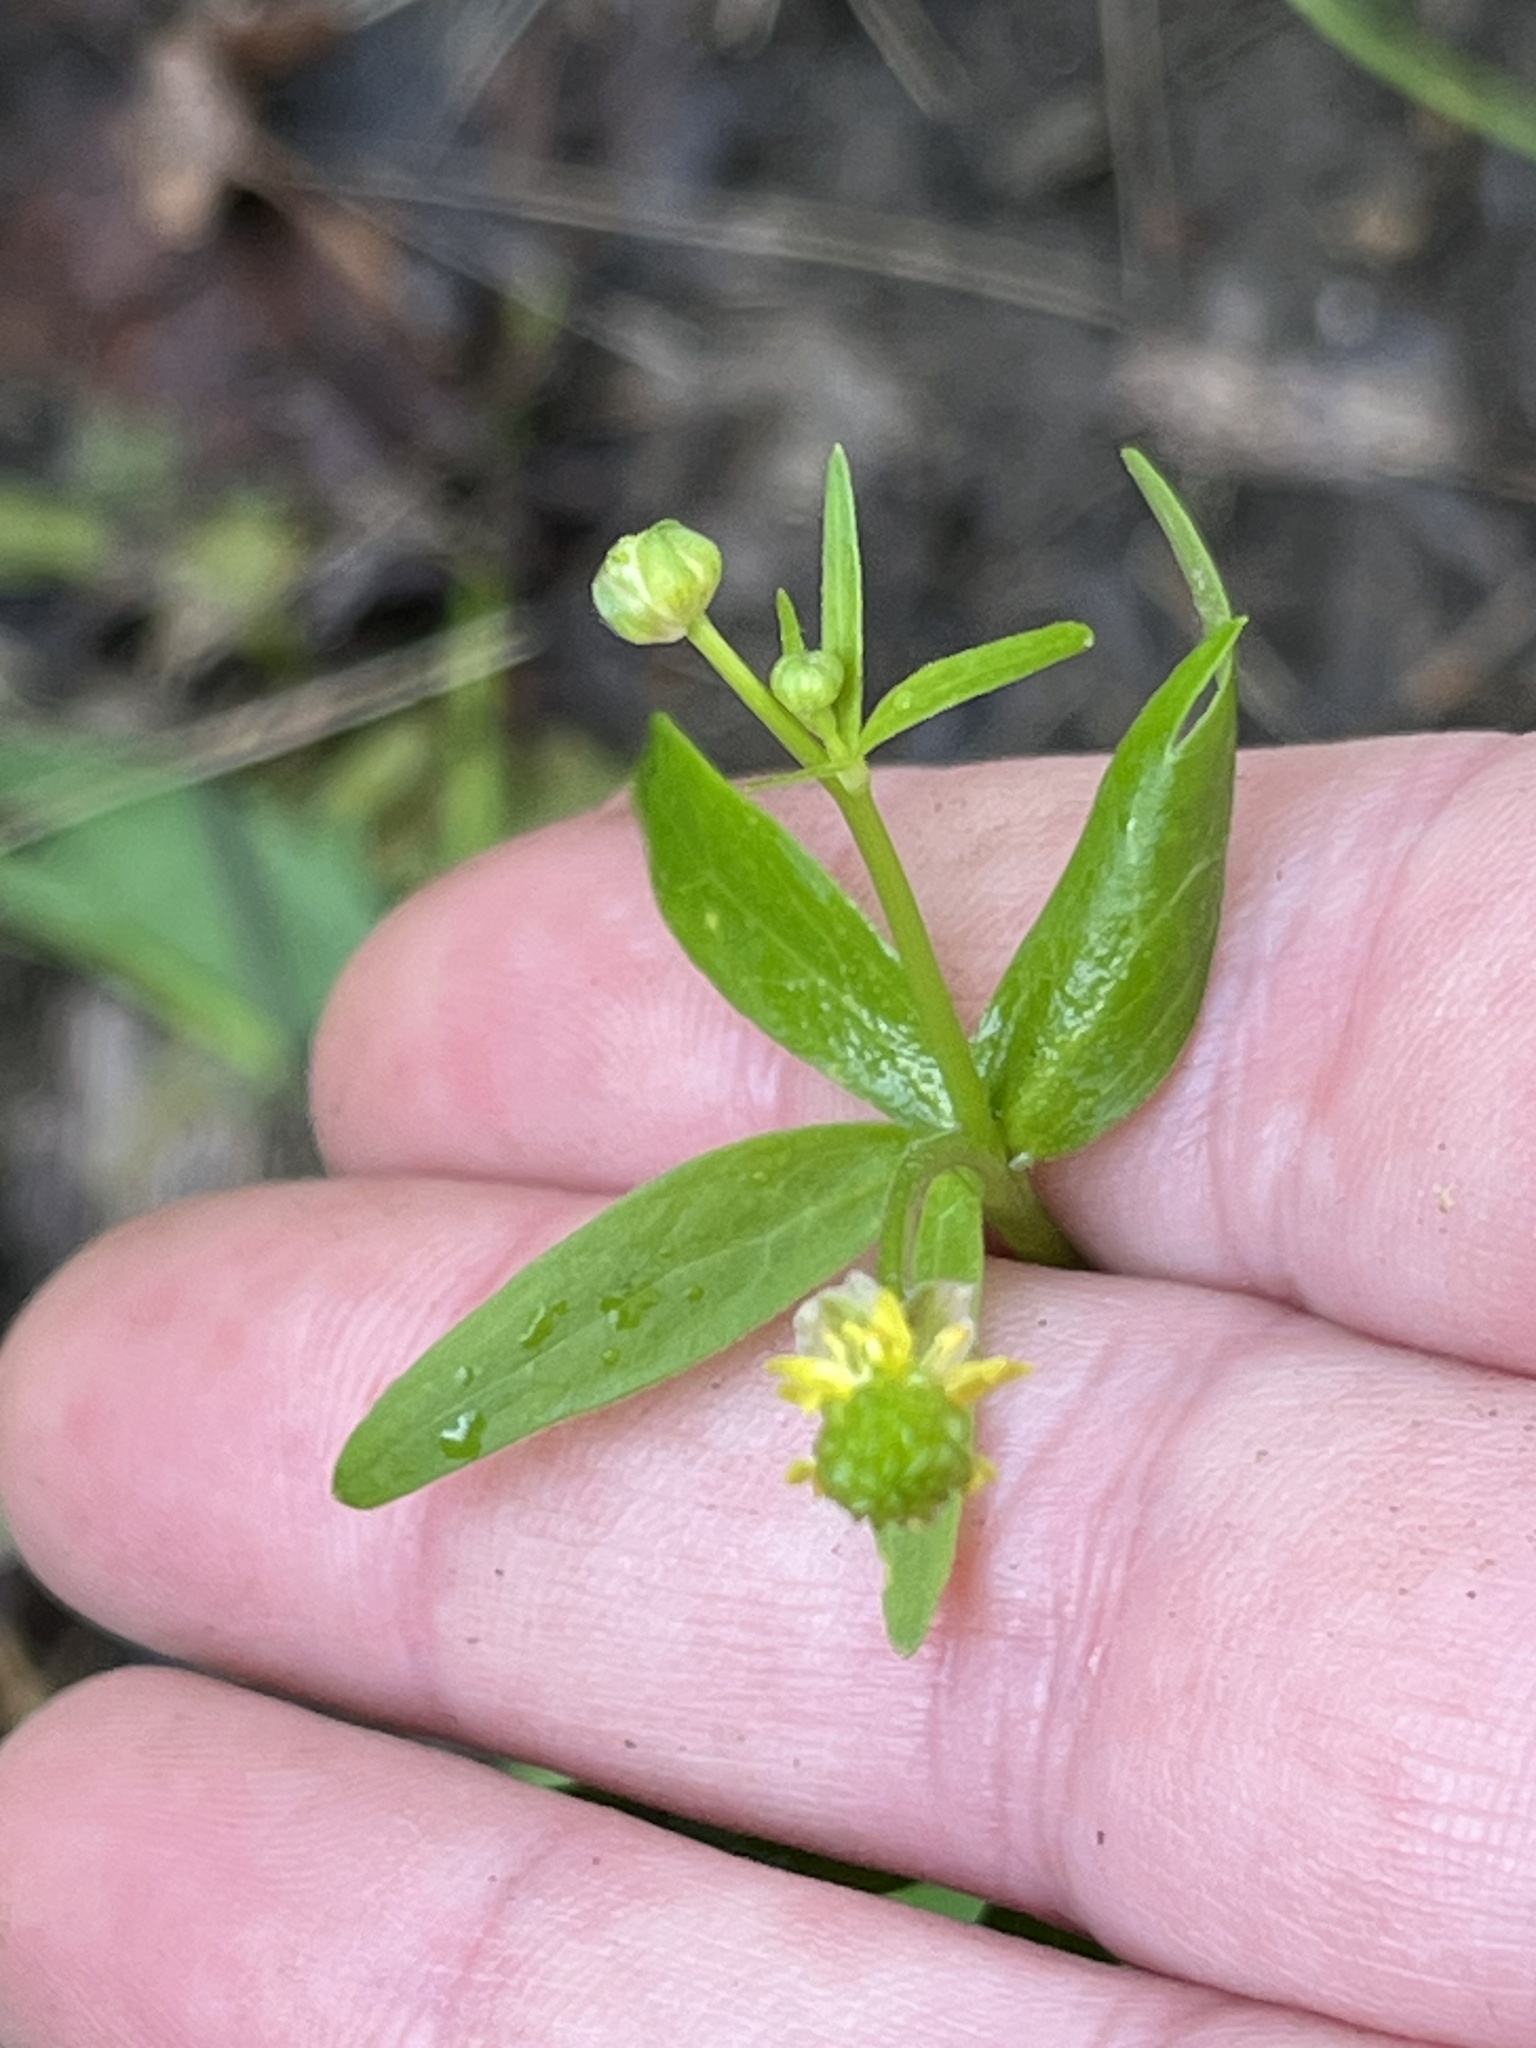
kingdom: Plantae
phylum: Tracheophyta
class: Magnoliopsida
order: Ranunculales
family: Ranunculaceae
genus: Ranunculus
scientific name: Ranunculus abortivus
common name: Early wood buttercup
